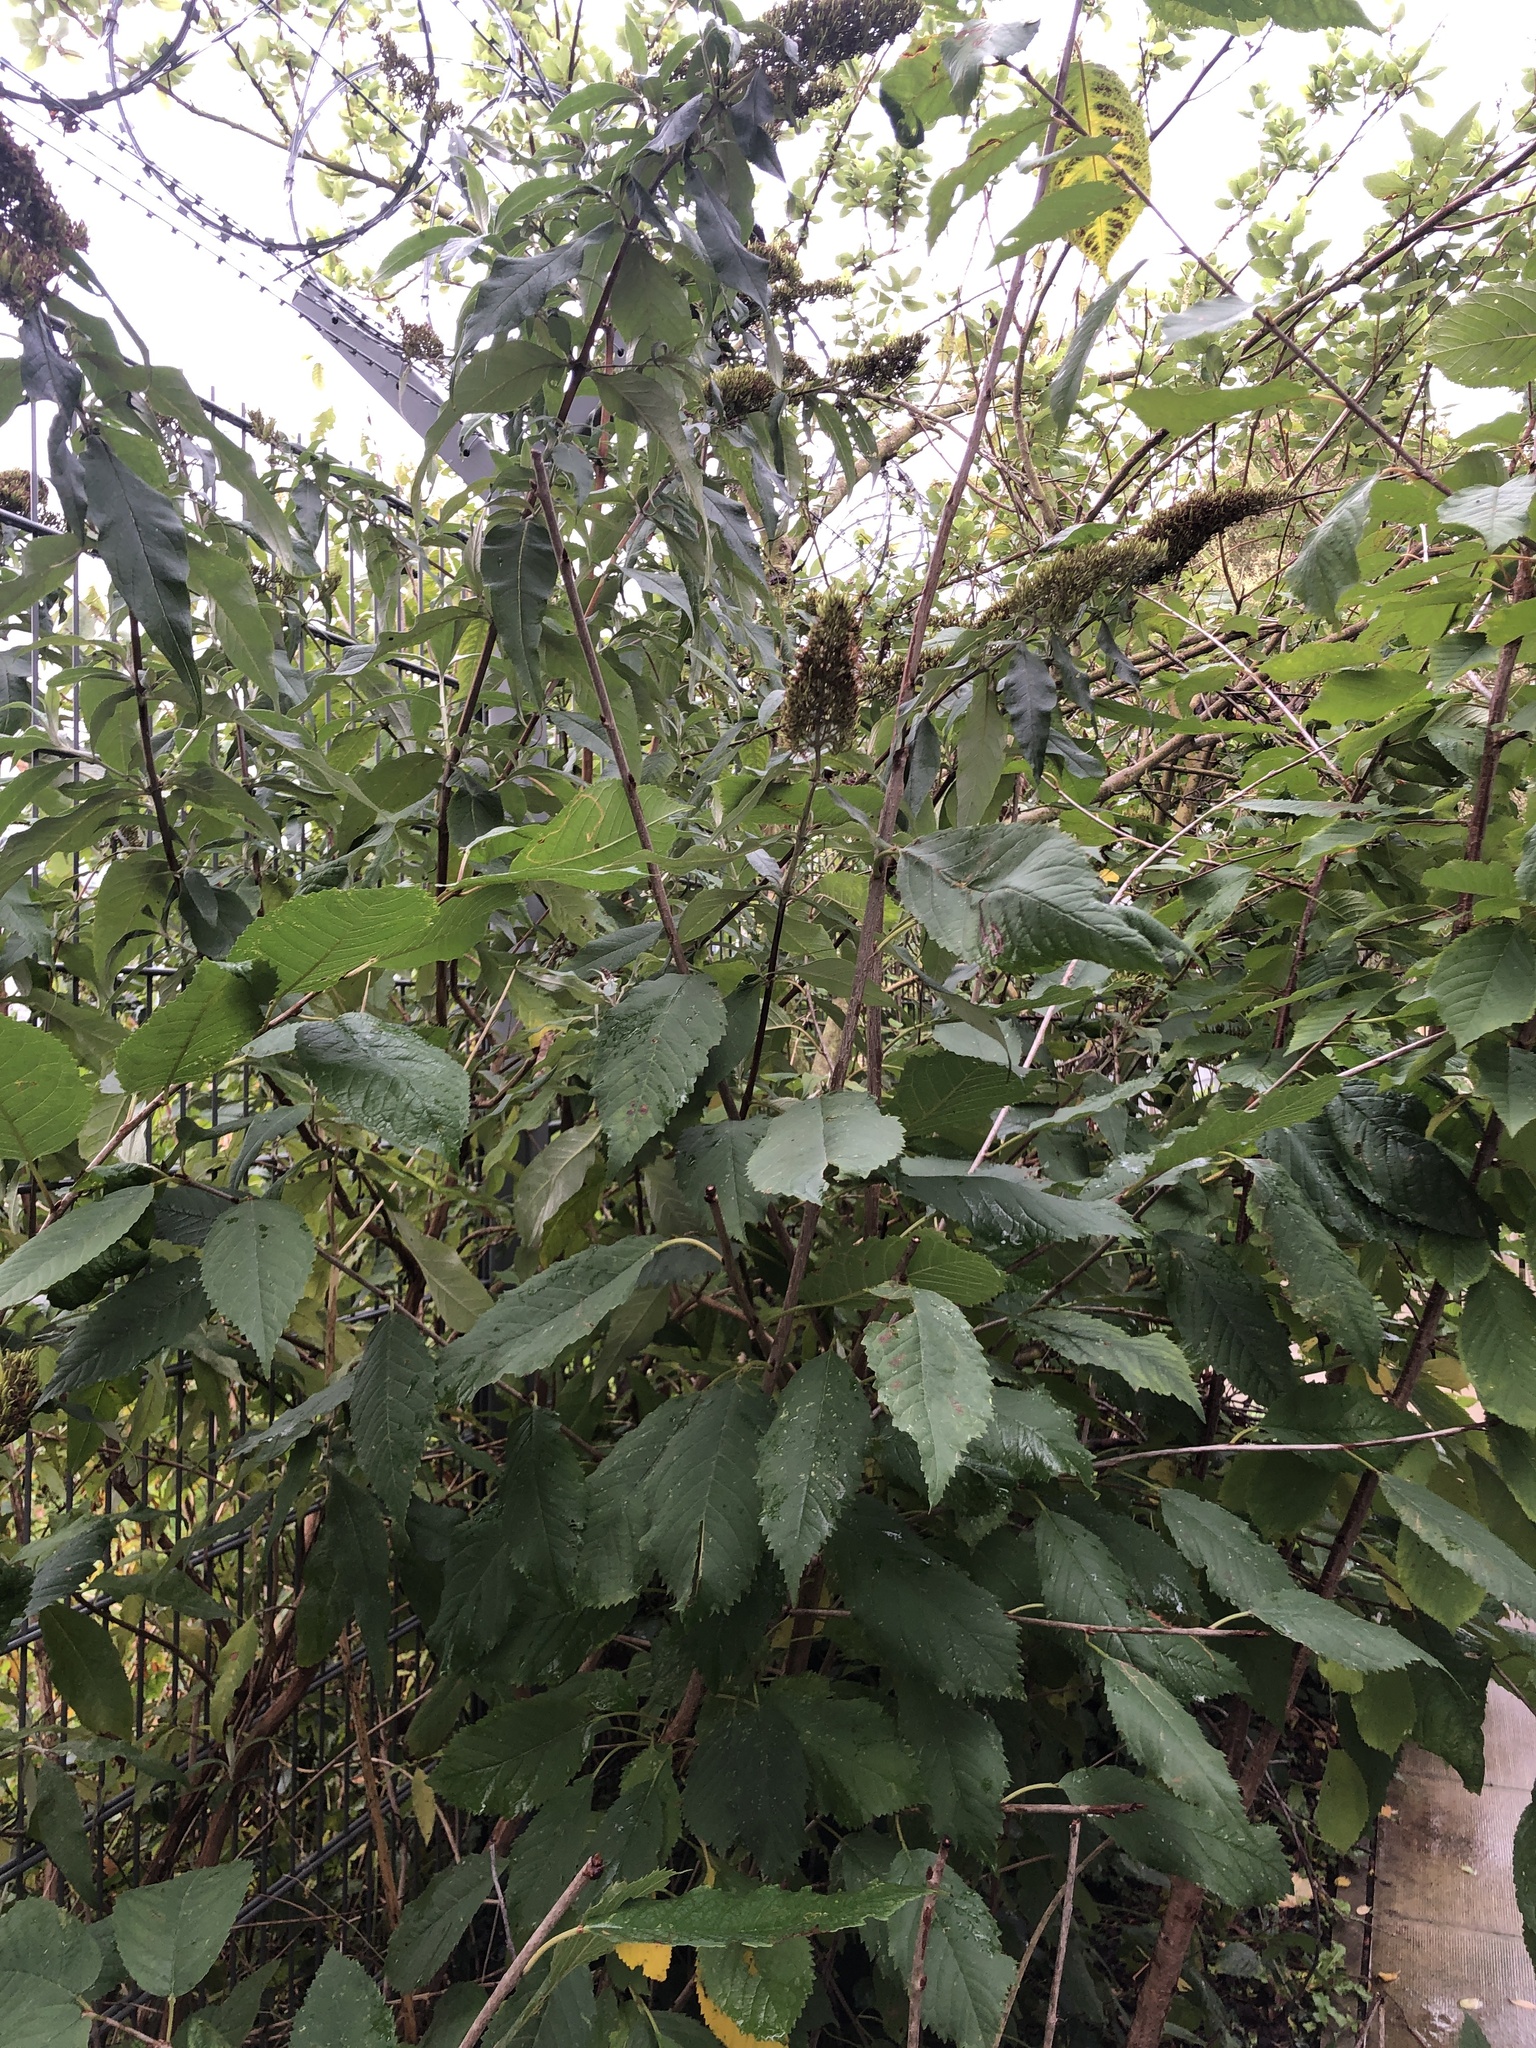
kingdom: Plantae
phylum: Tracheophyta
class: Magnoliopsida
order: Lamiales
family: Scrophulariaceae
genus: Buddleja
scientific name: Buddleja davidii
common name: Butterfly-bush
